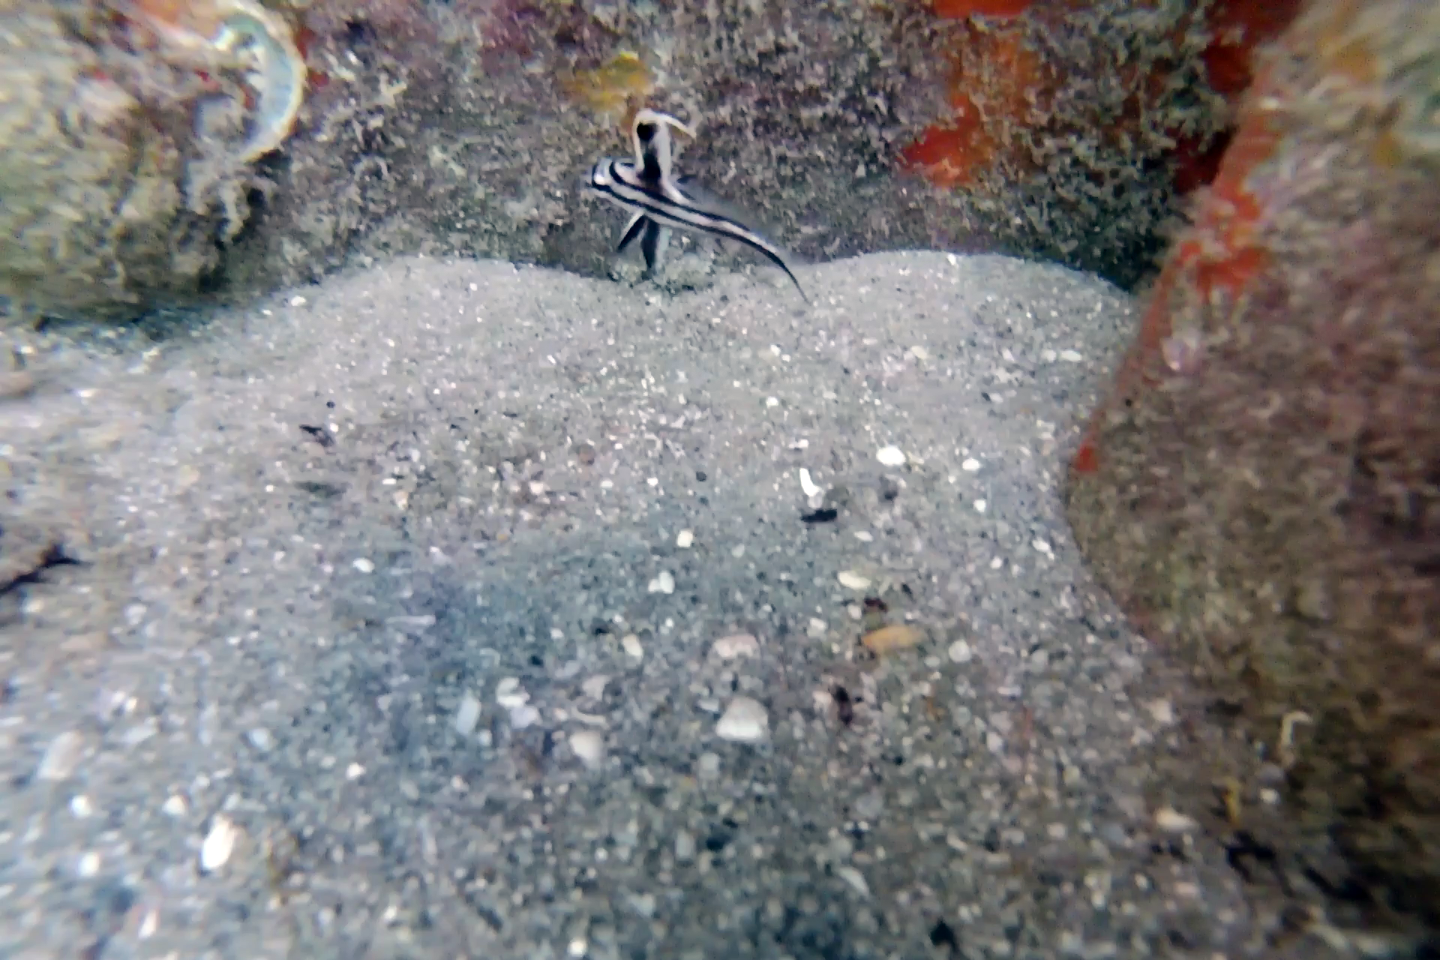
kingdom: Animalia
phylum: Chordata
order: Perciformes
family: Sciaenidae
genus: Pareques
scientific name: Pareques acuminatus
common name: High-hat
